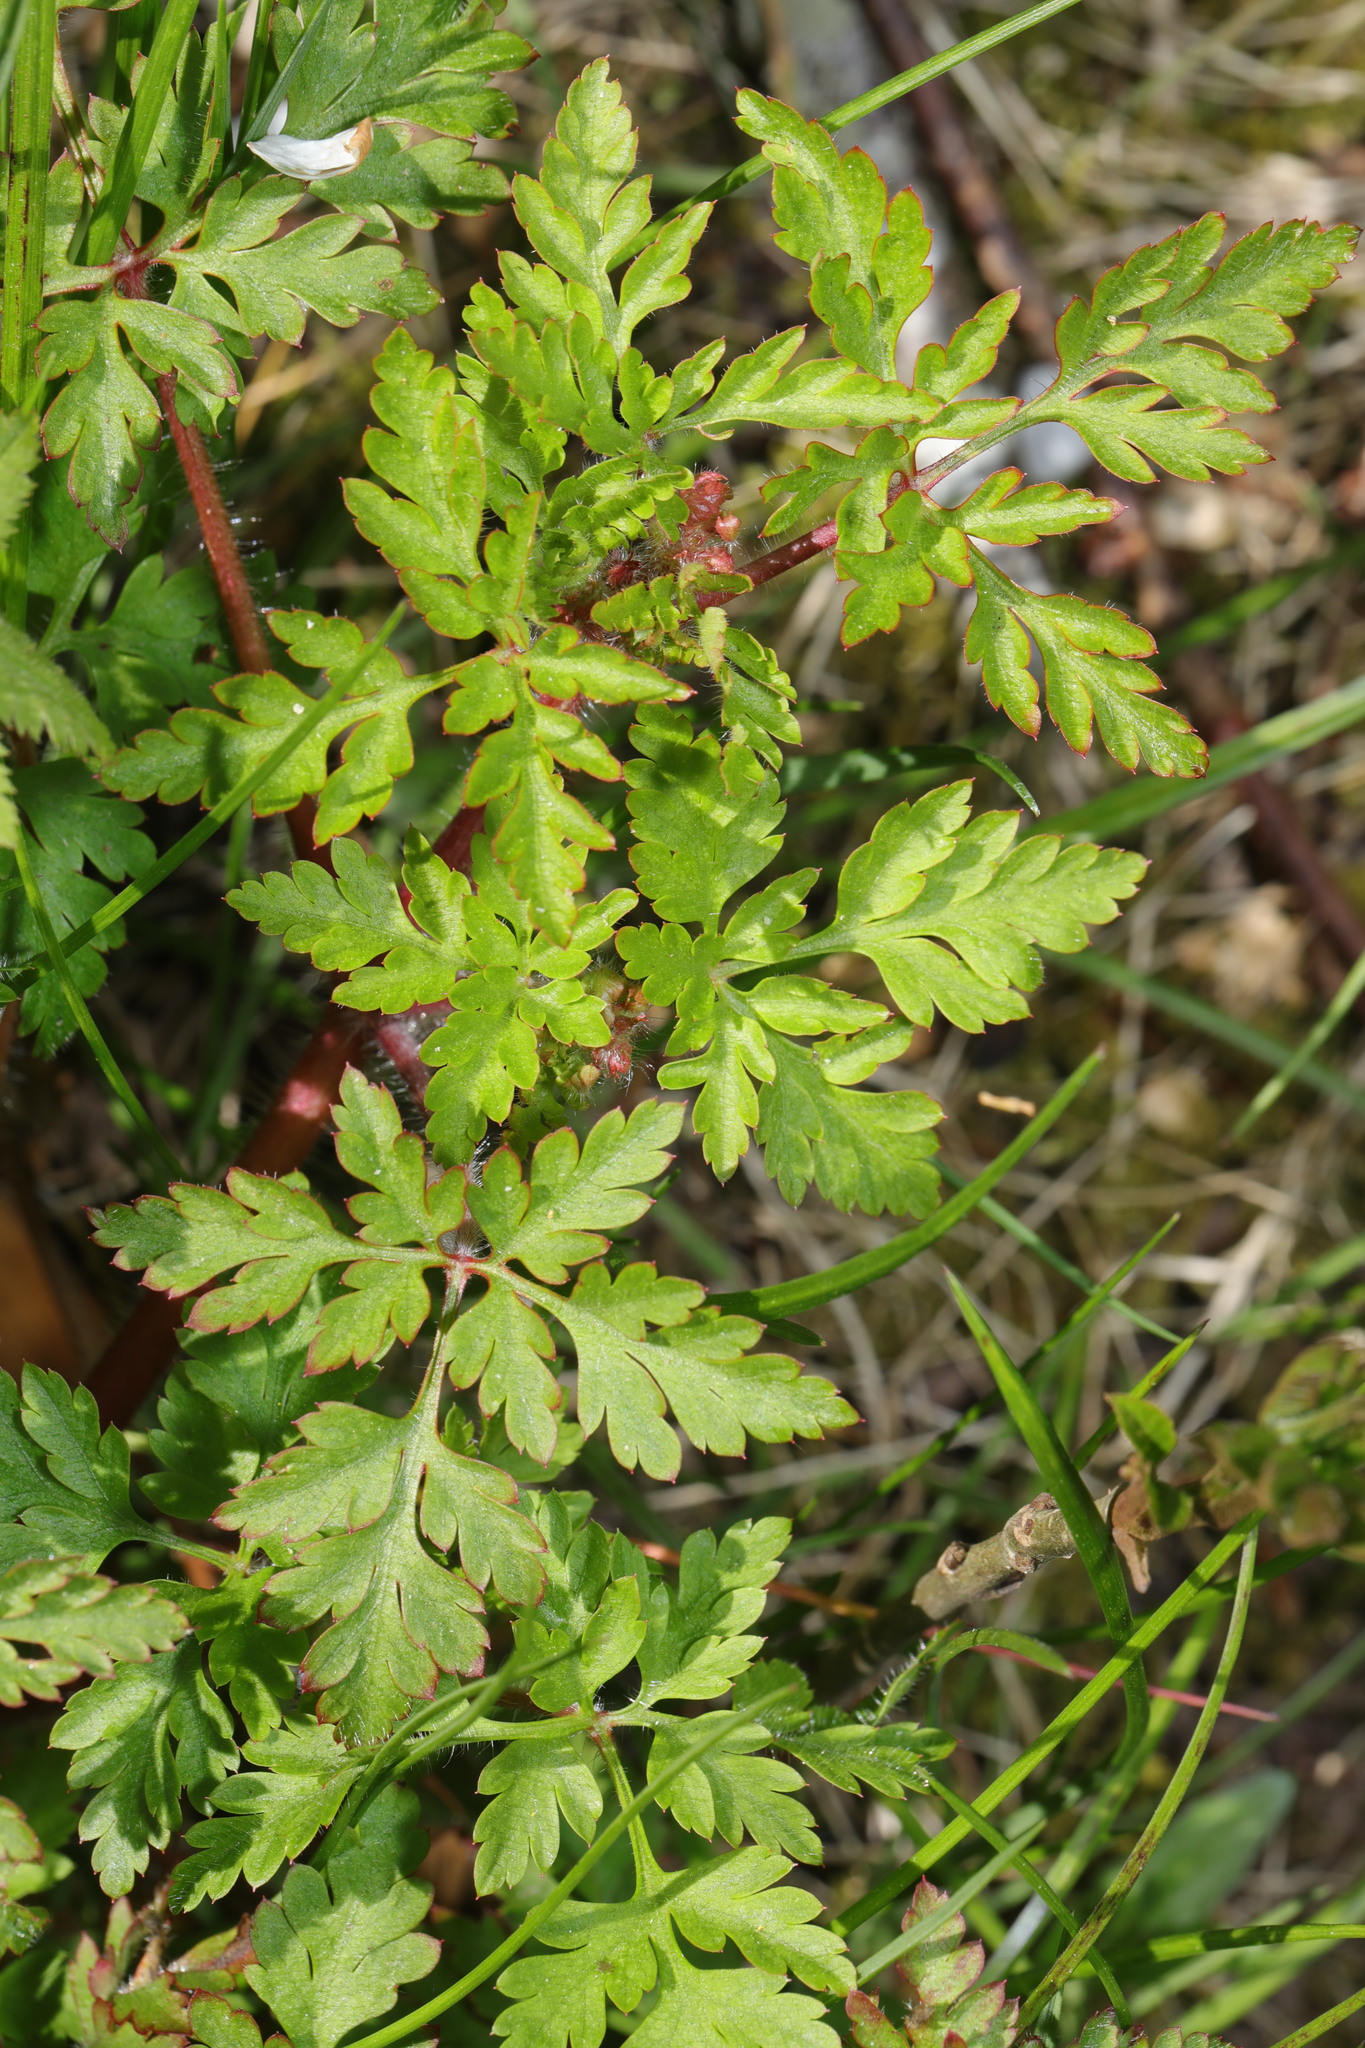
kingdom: Plantae
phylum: Tracheophyta
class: Magnoliopsida
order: Geraniales
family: Geraniaceae
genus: Geranium
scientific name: Geranium robertianum
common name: Herb-robert
